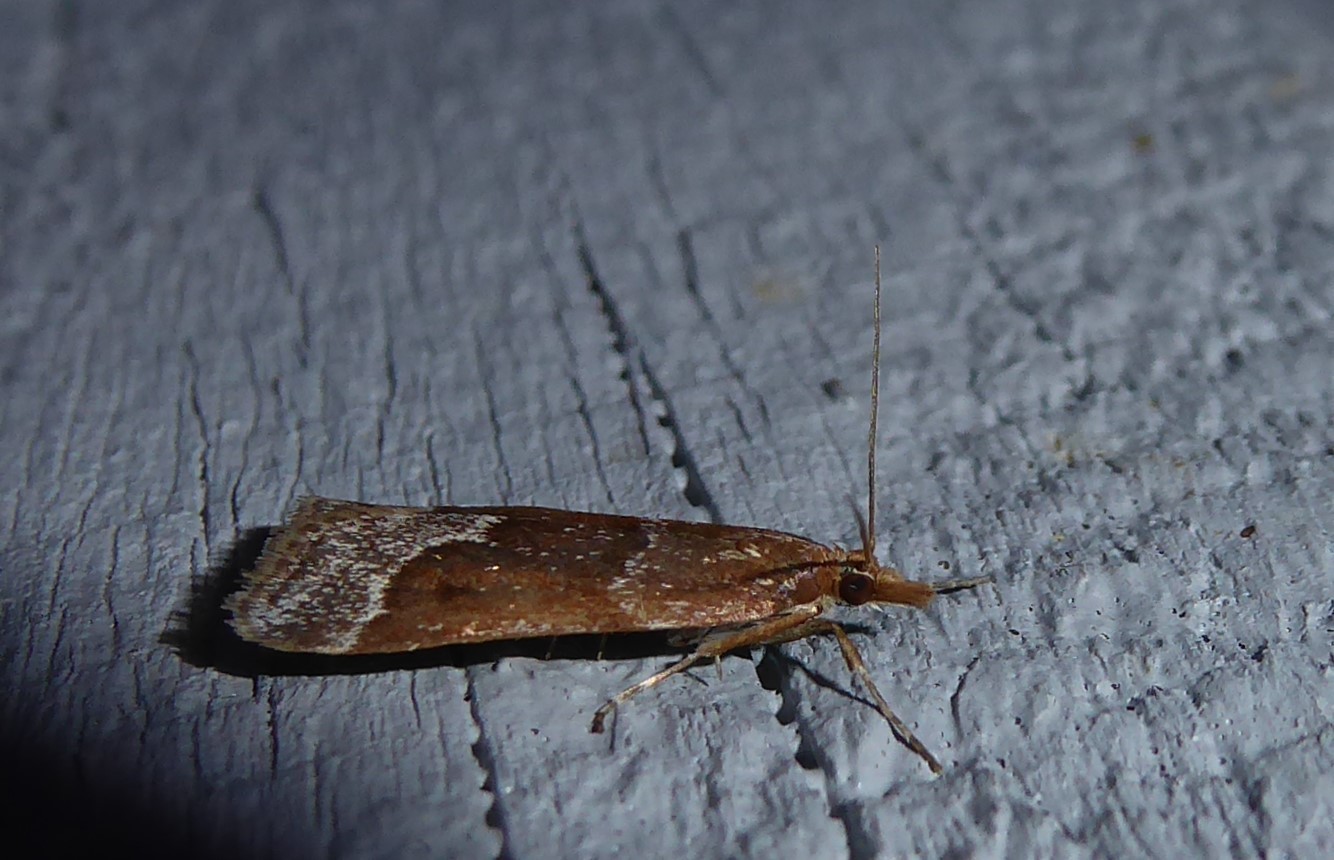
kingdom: Animalia
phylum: Arthropoda
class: Insecta
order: Lepidoptera
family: Crambidae
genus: Eudonia
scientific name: Eudonia feredayi
